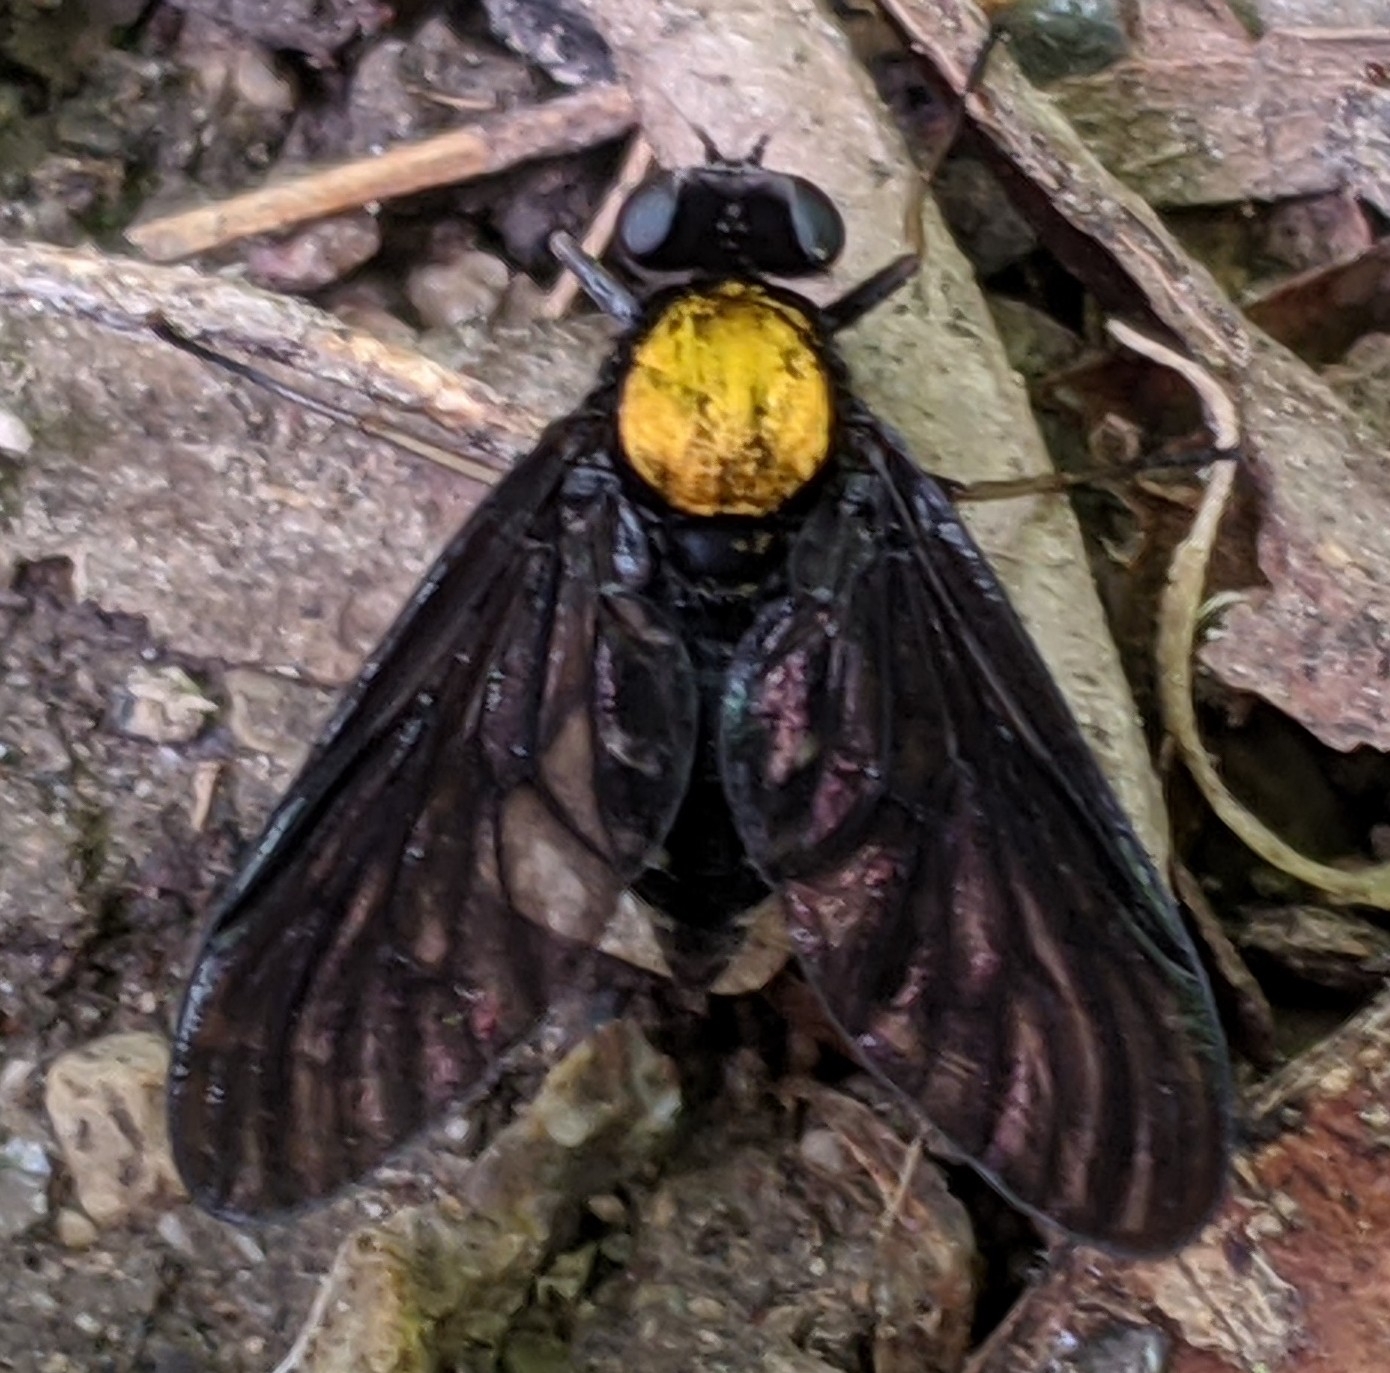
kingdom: Animalia
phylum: Arthropoda
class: Insecta
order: Diptera
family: Rhagionidae
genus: Chrysopilus
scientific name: Chrysopilus thoracicus
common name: Golden-backed snipe fly
